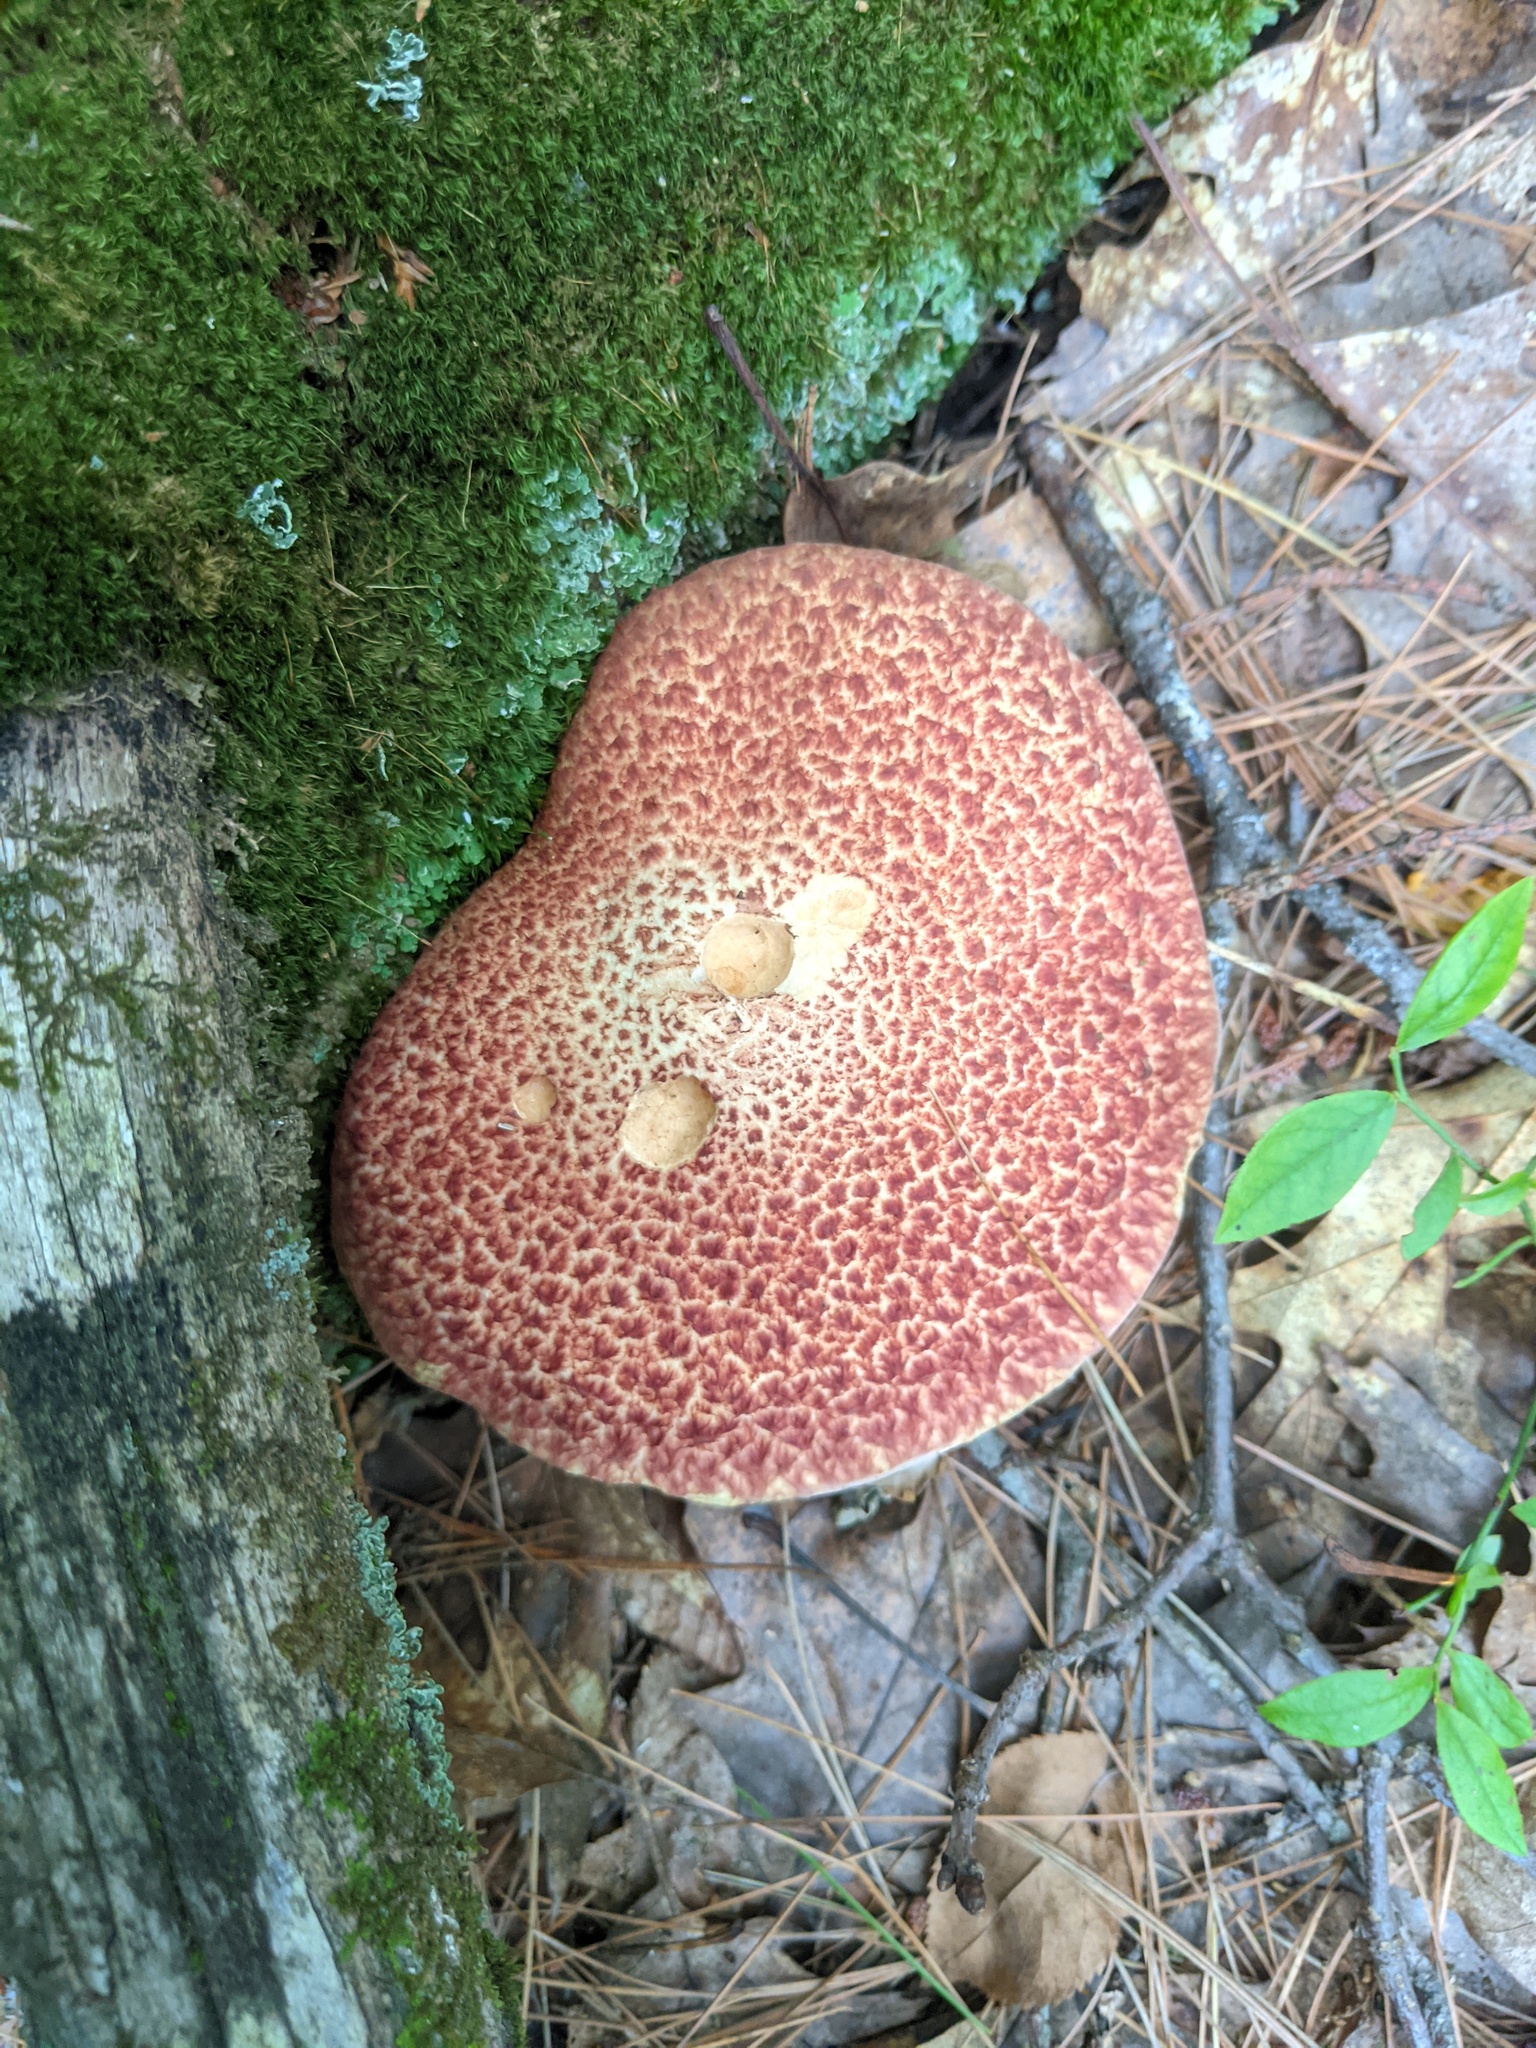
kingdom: Fungi
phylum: Basidiomycota
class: Agaricomycetes
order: Boletales
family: Suillaceae
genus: Suillus
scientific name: Suillus spraguei
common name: Painted suillus
